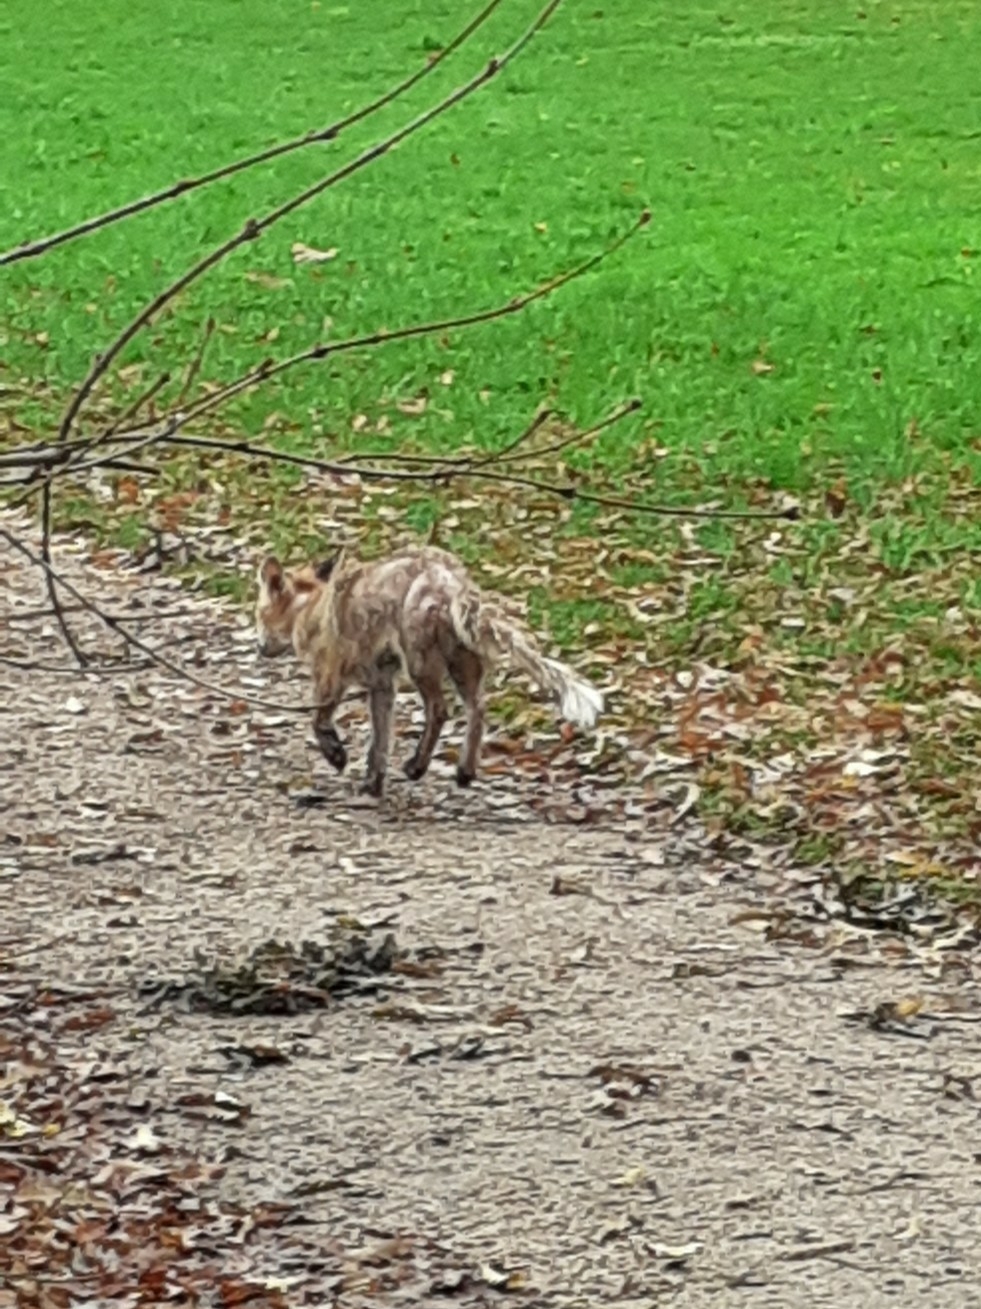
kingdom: Animalia
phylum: Chordata
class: Mammalia
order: Carnivora
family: Canidae
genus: Vulpes
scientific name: Vulpes vulpes
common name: Red fox
